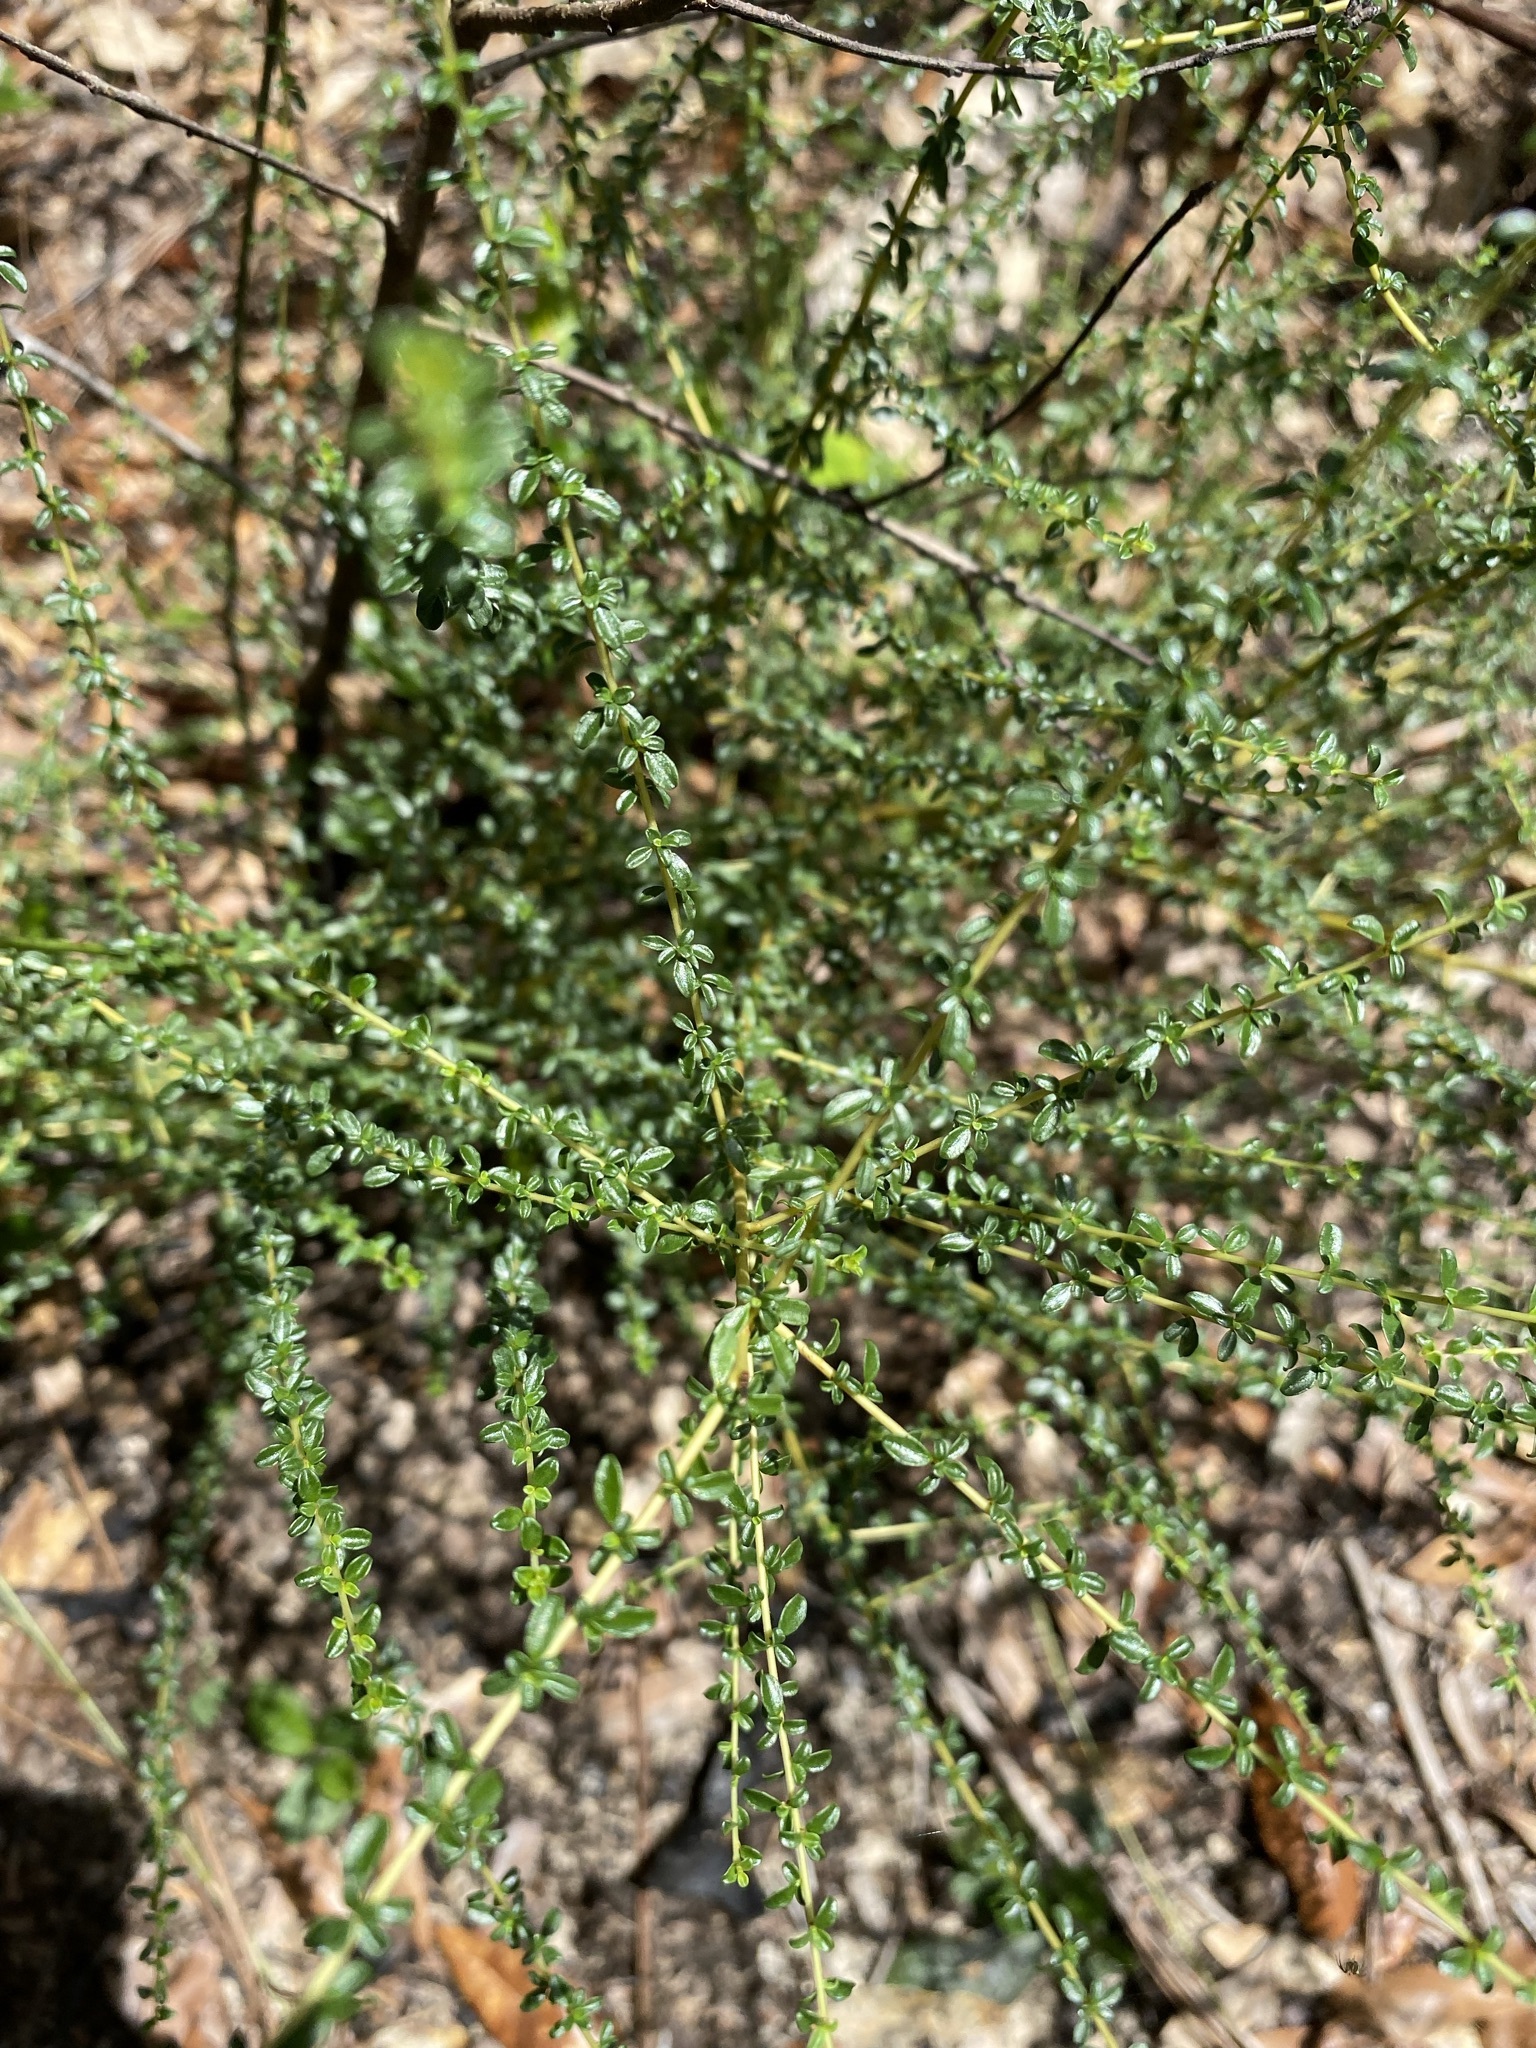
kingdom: Plantae
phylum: Tracheophyta
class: Magnoliopsida
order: Rosales
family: Rhamnaceae
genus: Ceanothus
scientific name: Ceanothus microphyllus
